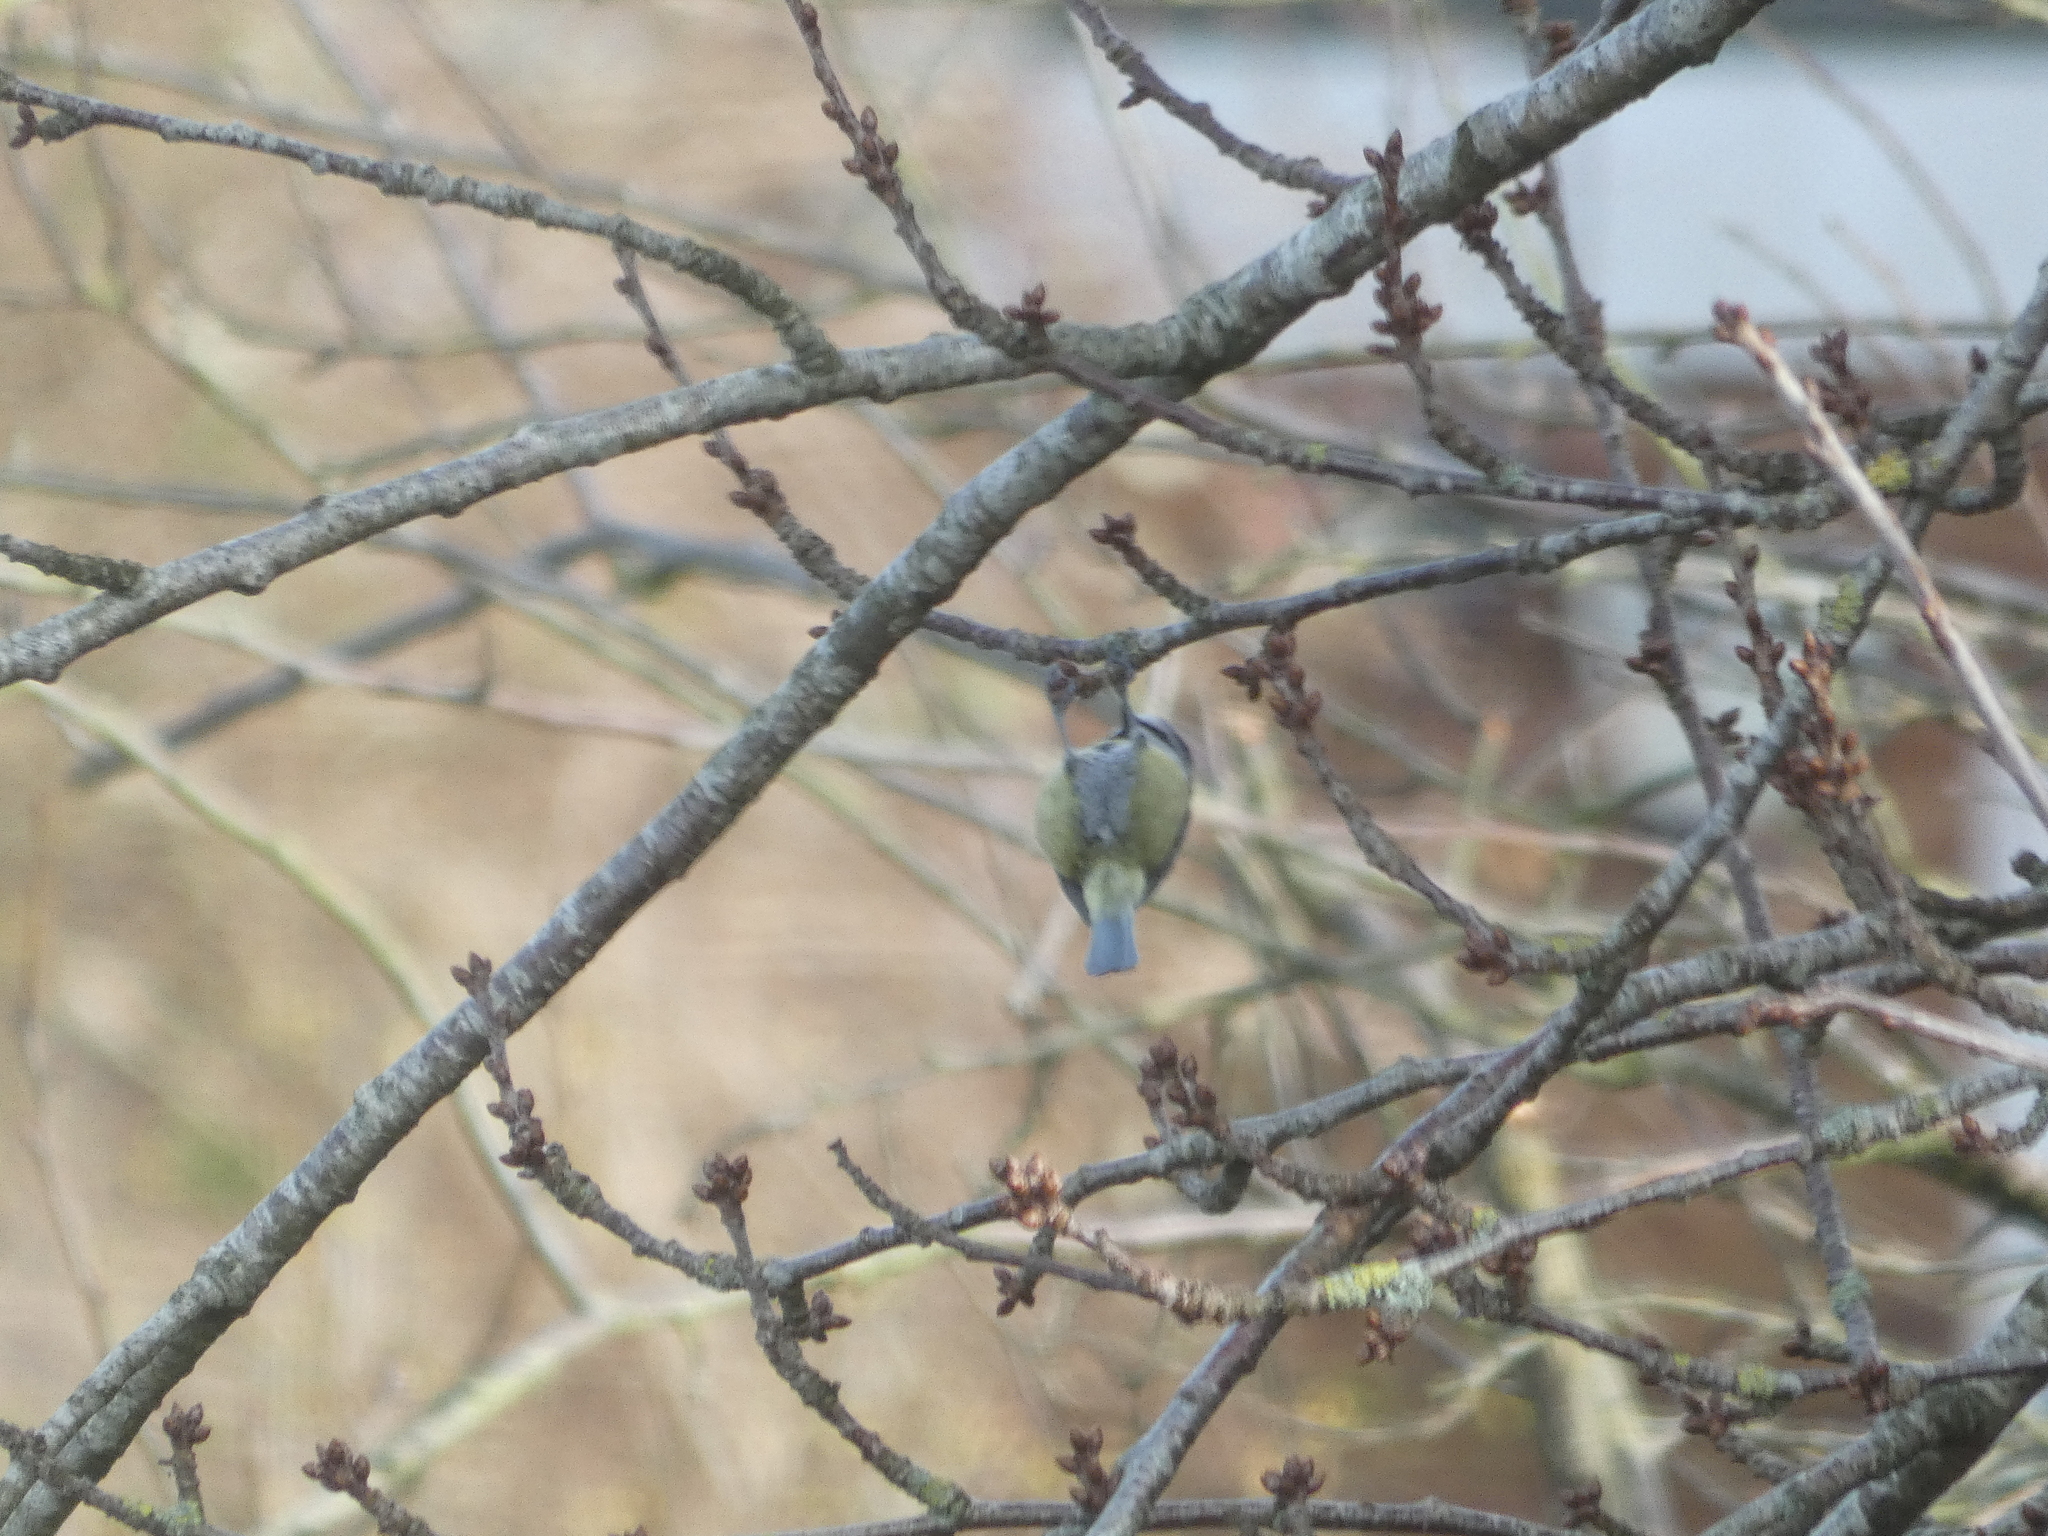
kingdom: Animalia
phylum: Chordata
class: Aves
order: Passeriformes
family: Paridae
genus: Cyanistes
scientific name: Cyanistes caeruleus
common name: Eurasian blue tit
